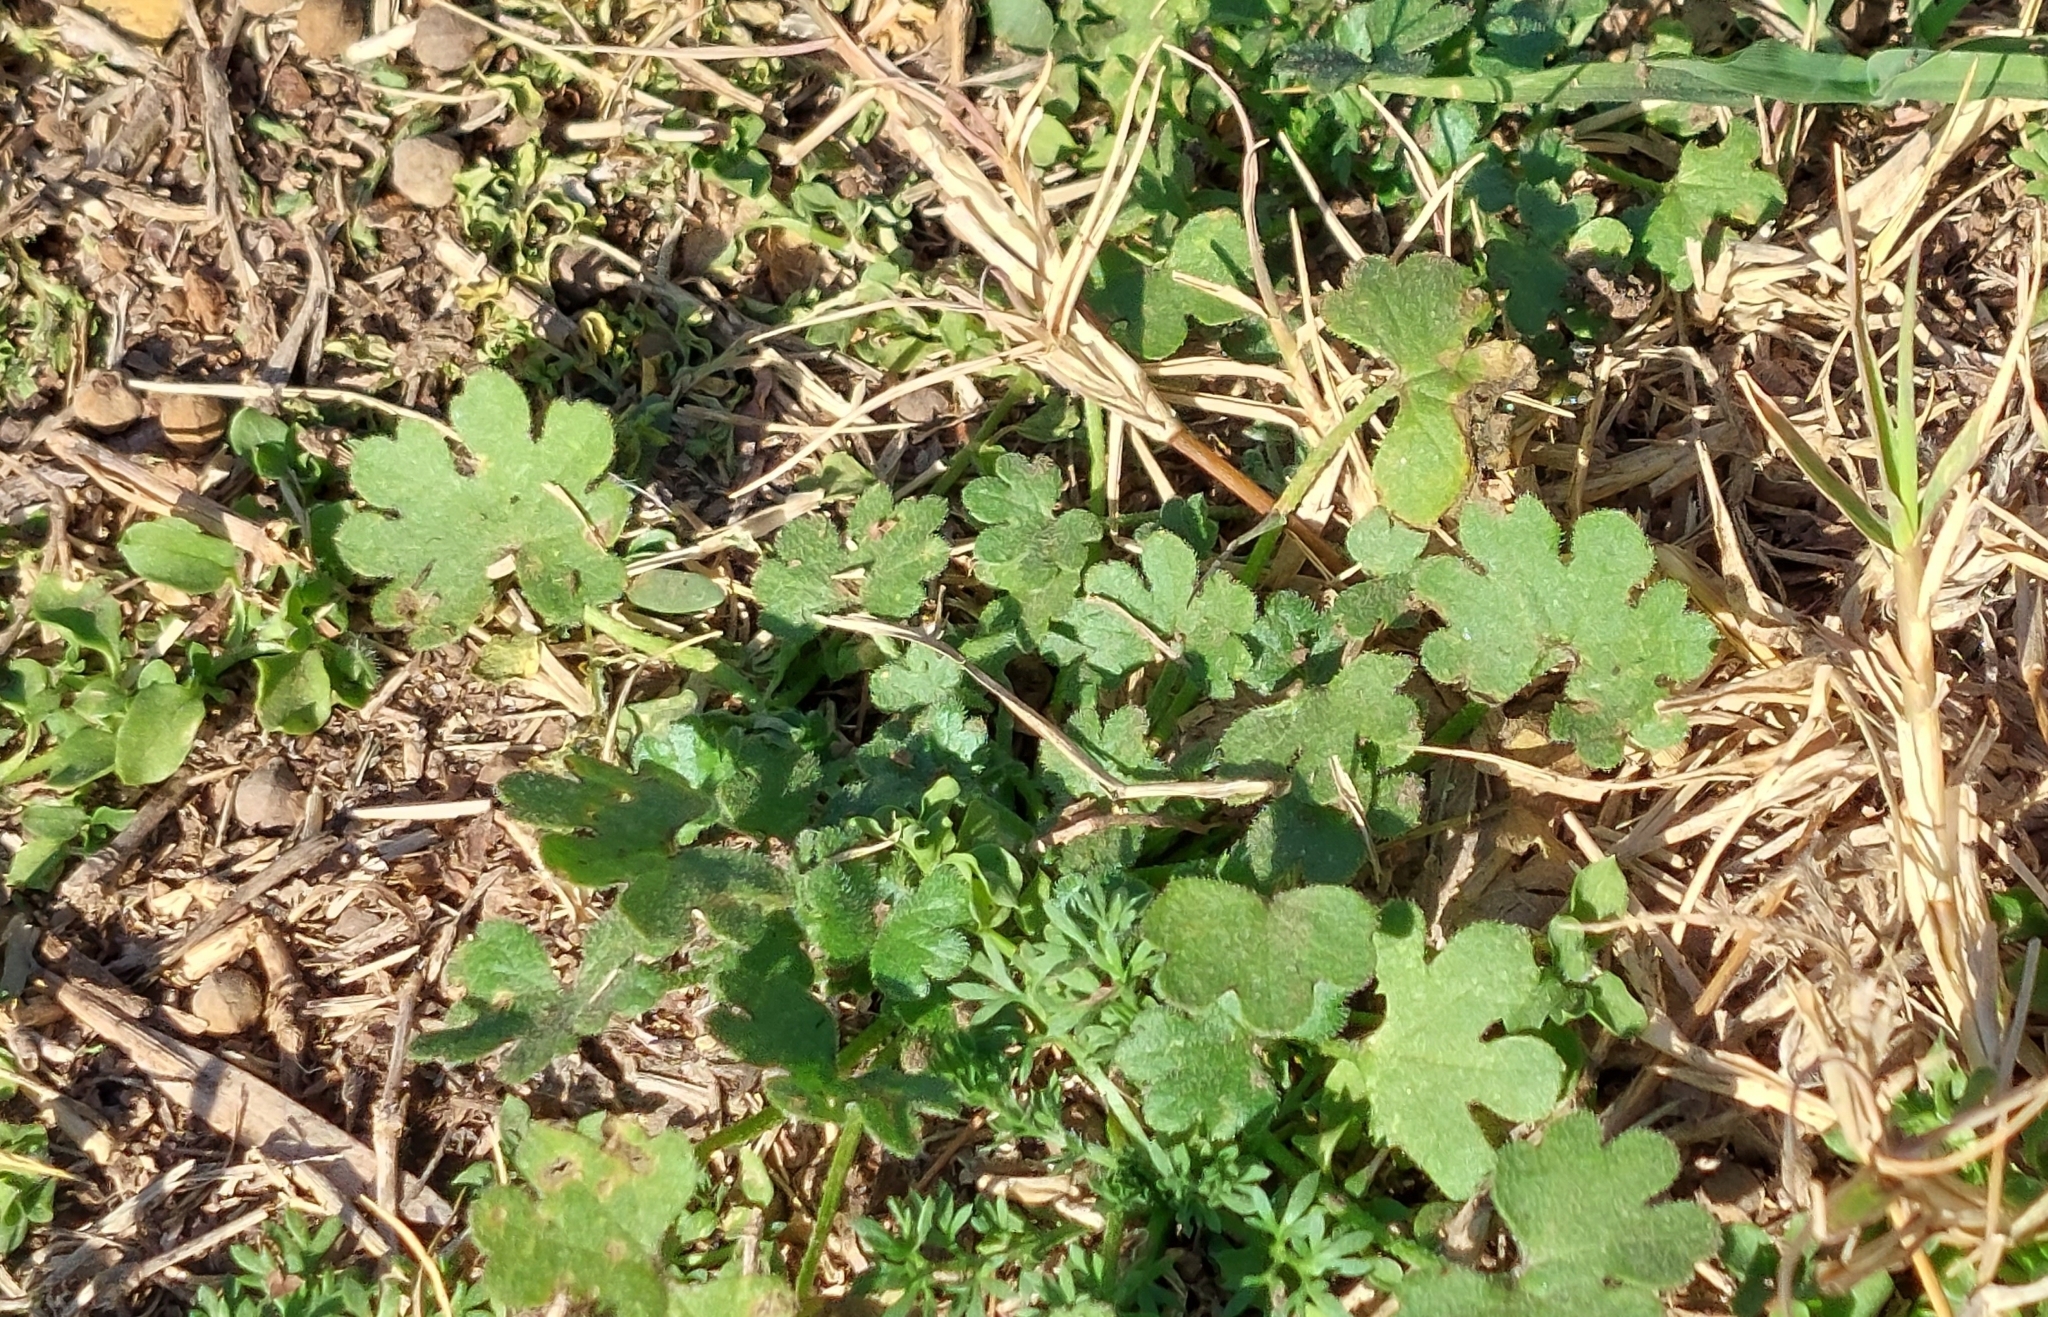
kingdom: Plantae
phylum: Tracheophyta
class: Magnoliopsida
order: Apiales
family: Apiaceae
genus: Bowlesia
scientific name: Bowlesia incana
